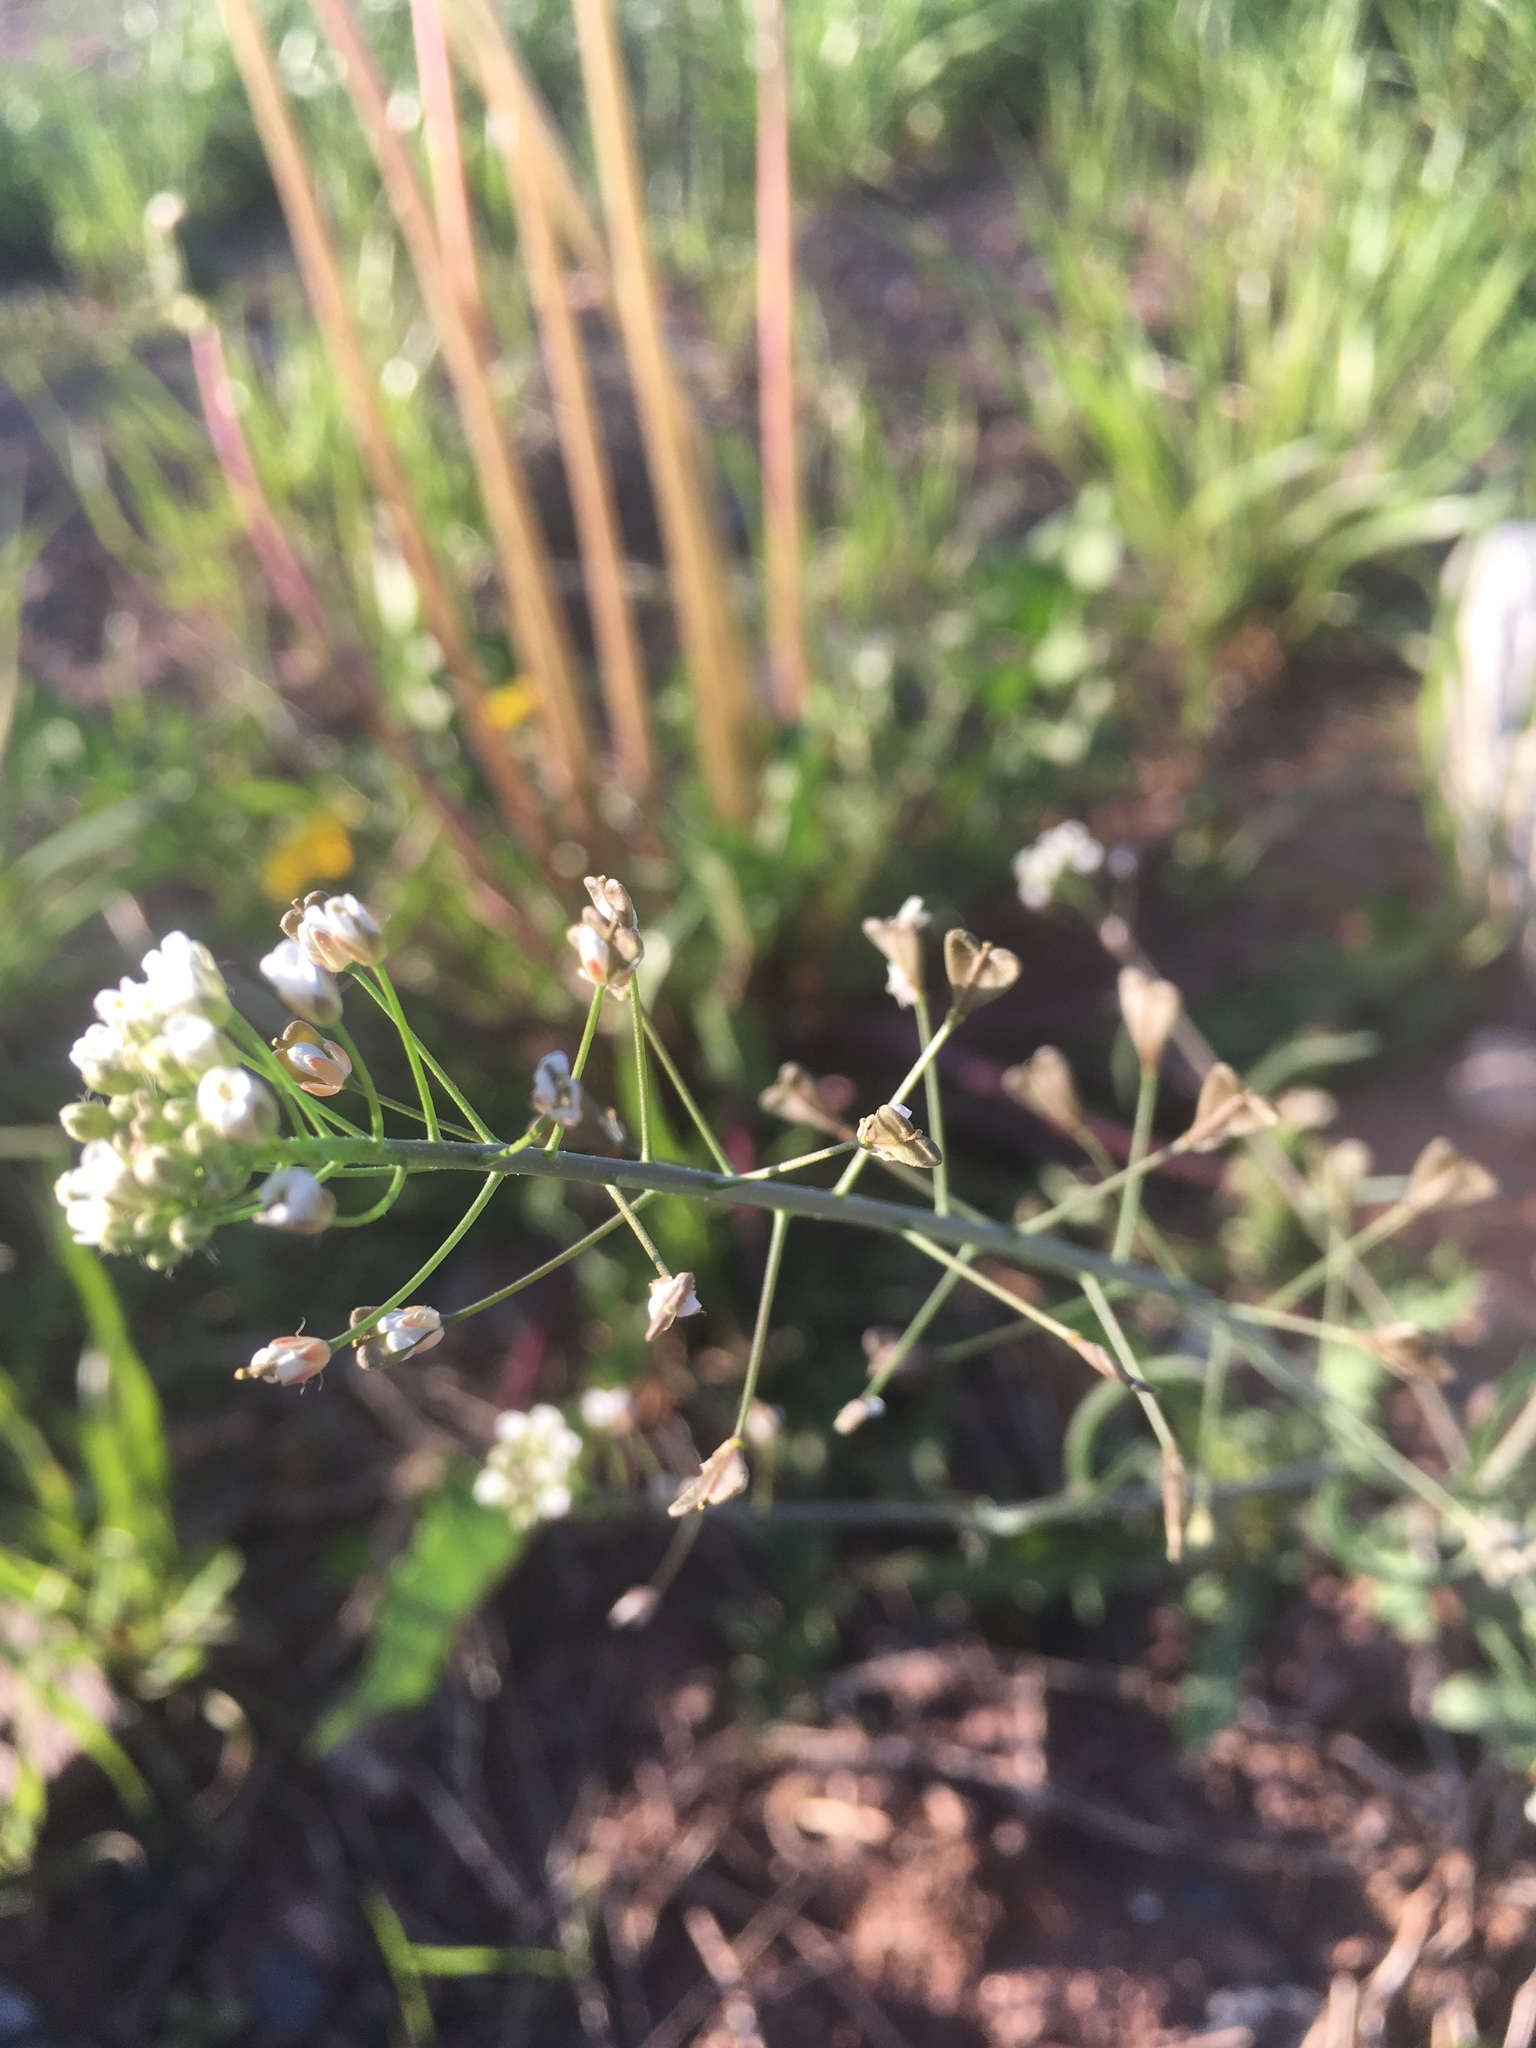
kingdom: Plantae
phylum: Tracheophyta
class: Magnoliopsida
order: Brassicales
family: Brassicaceae
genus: Capsella
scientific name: Capsella bursa-pastoris
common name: Shepherd's purse
